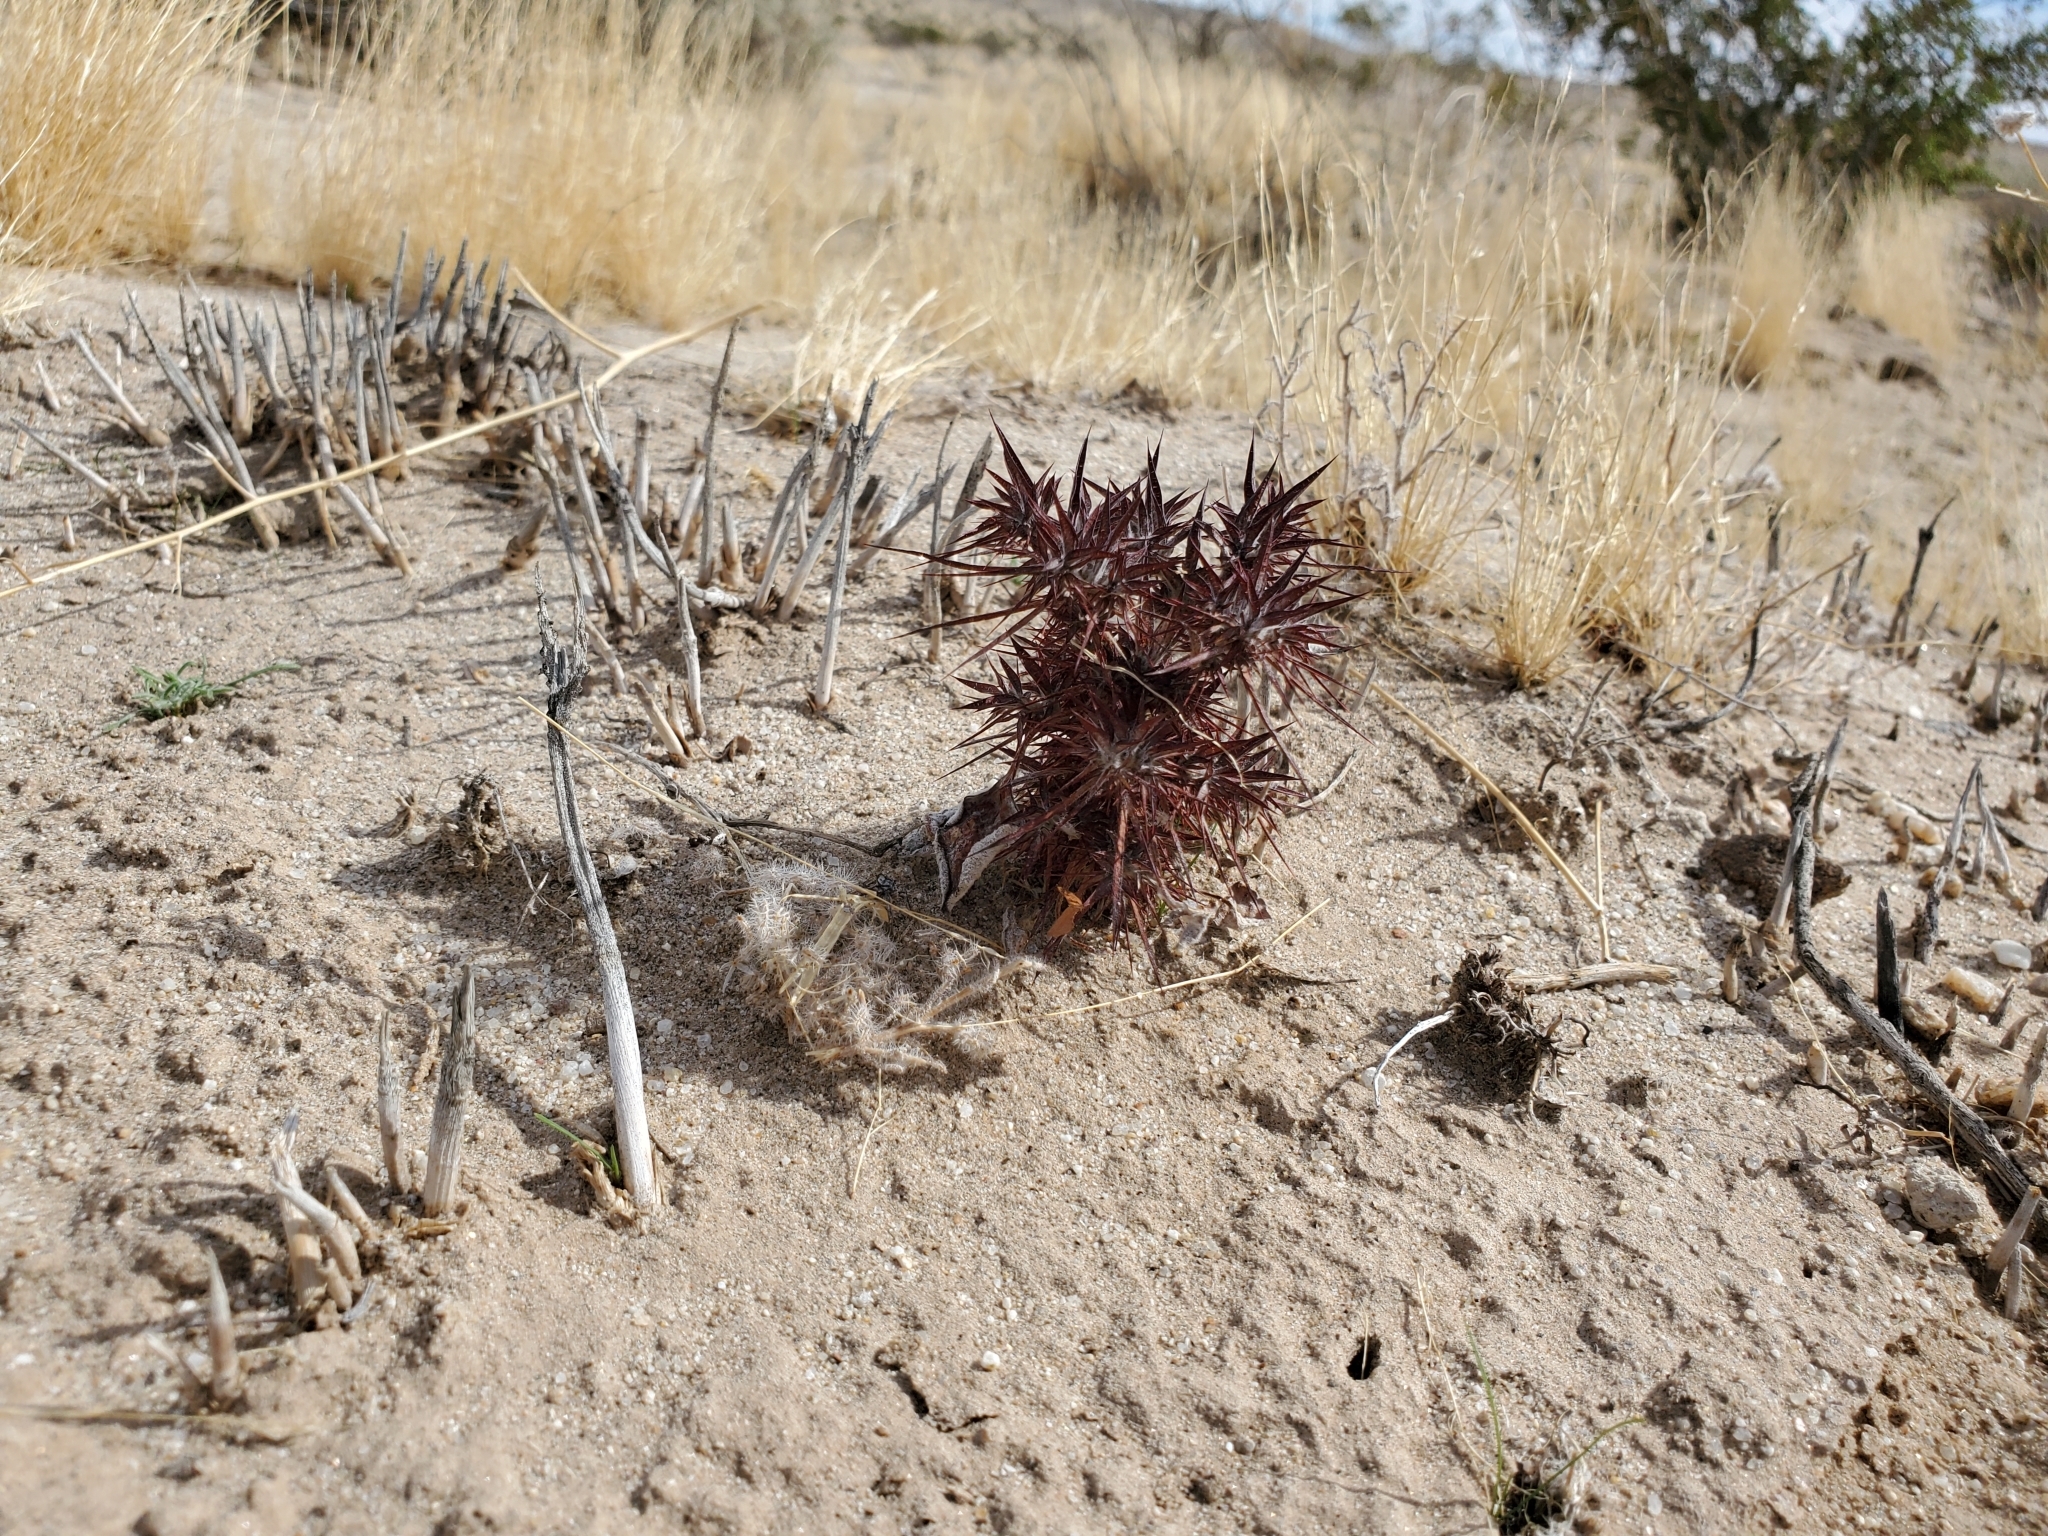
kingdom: Plantae
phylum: Tracheophyta
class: Magnoliopsida
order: Caryophyllales
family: Polygonaceae
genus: Chorizanthe
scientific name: Chorizanthe rigida
